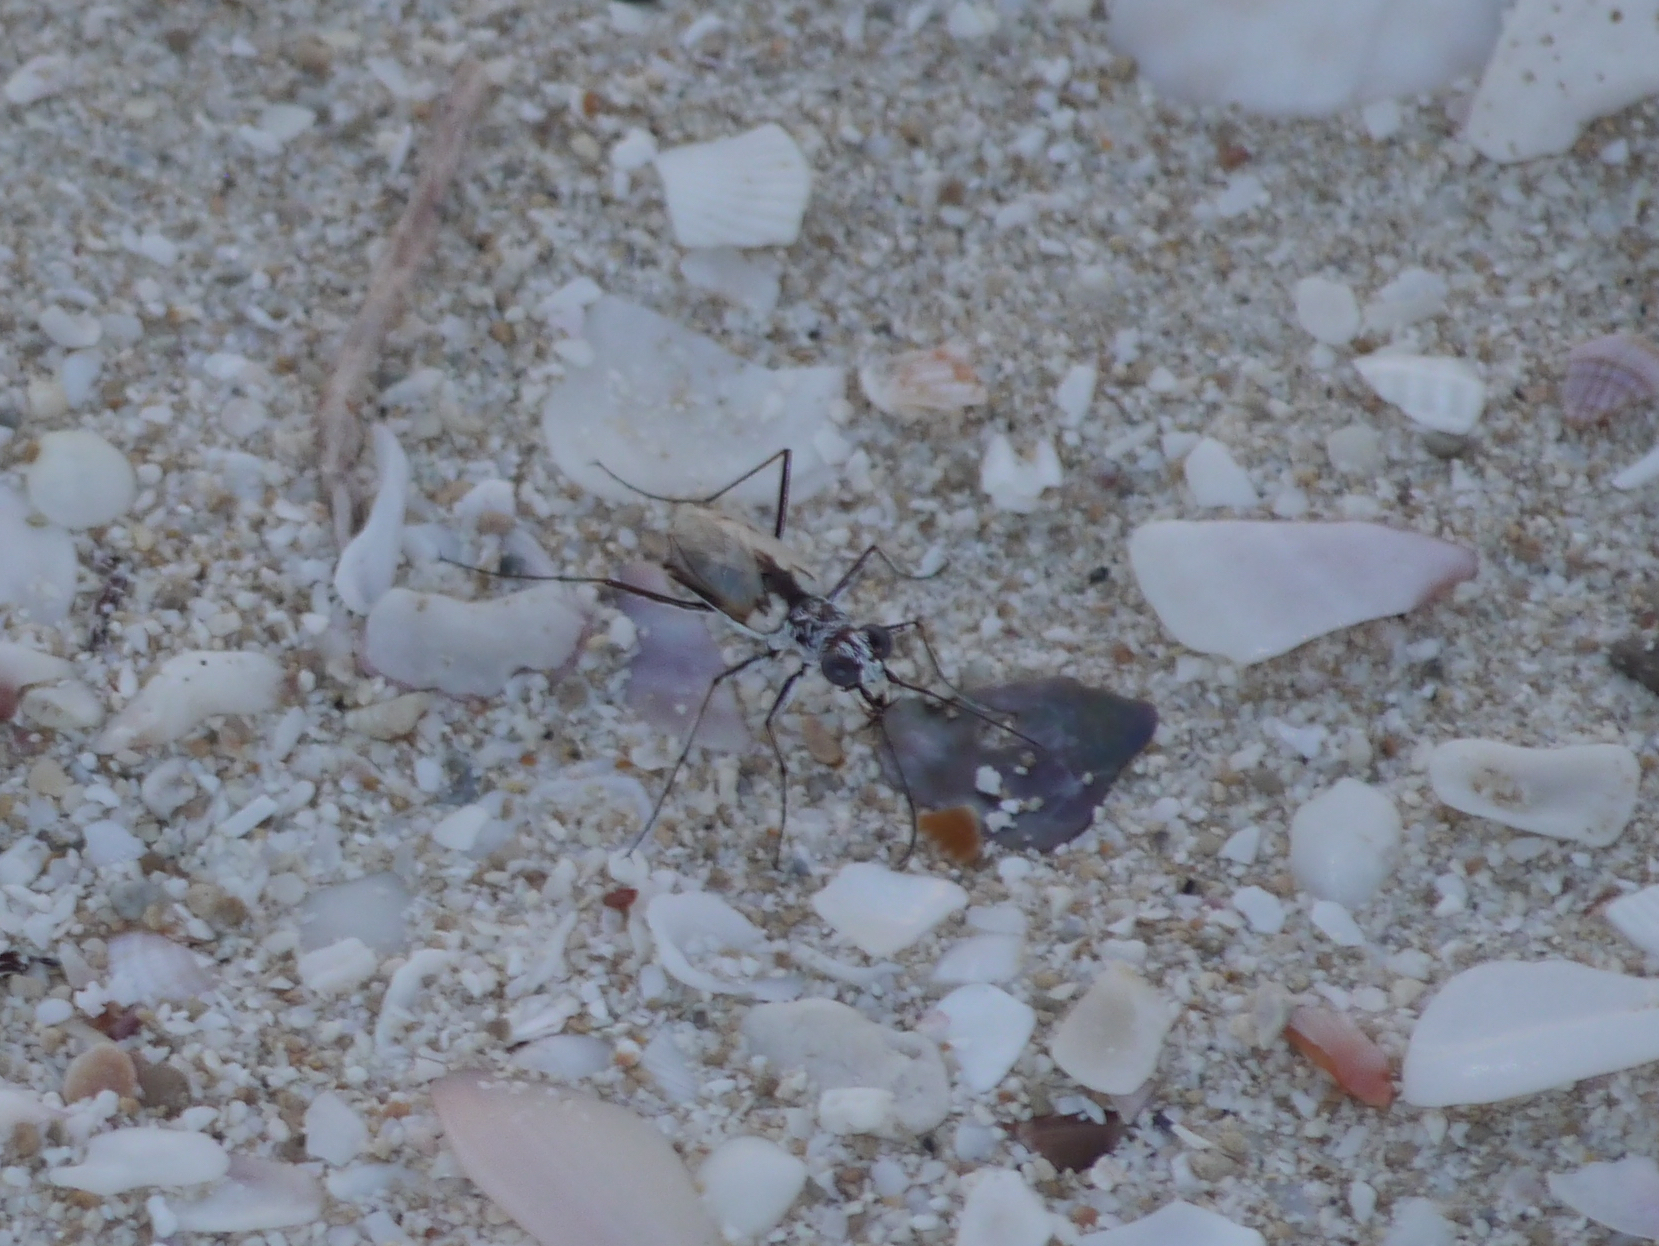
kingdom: Animalia
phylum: Arthropoda
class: Insecta
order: Coleoptera
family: Carabidae
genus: Ellipsoptera
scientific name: Ellipsoptera hamata
